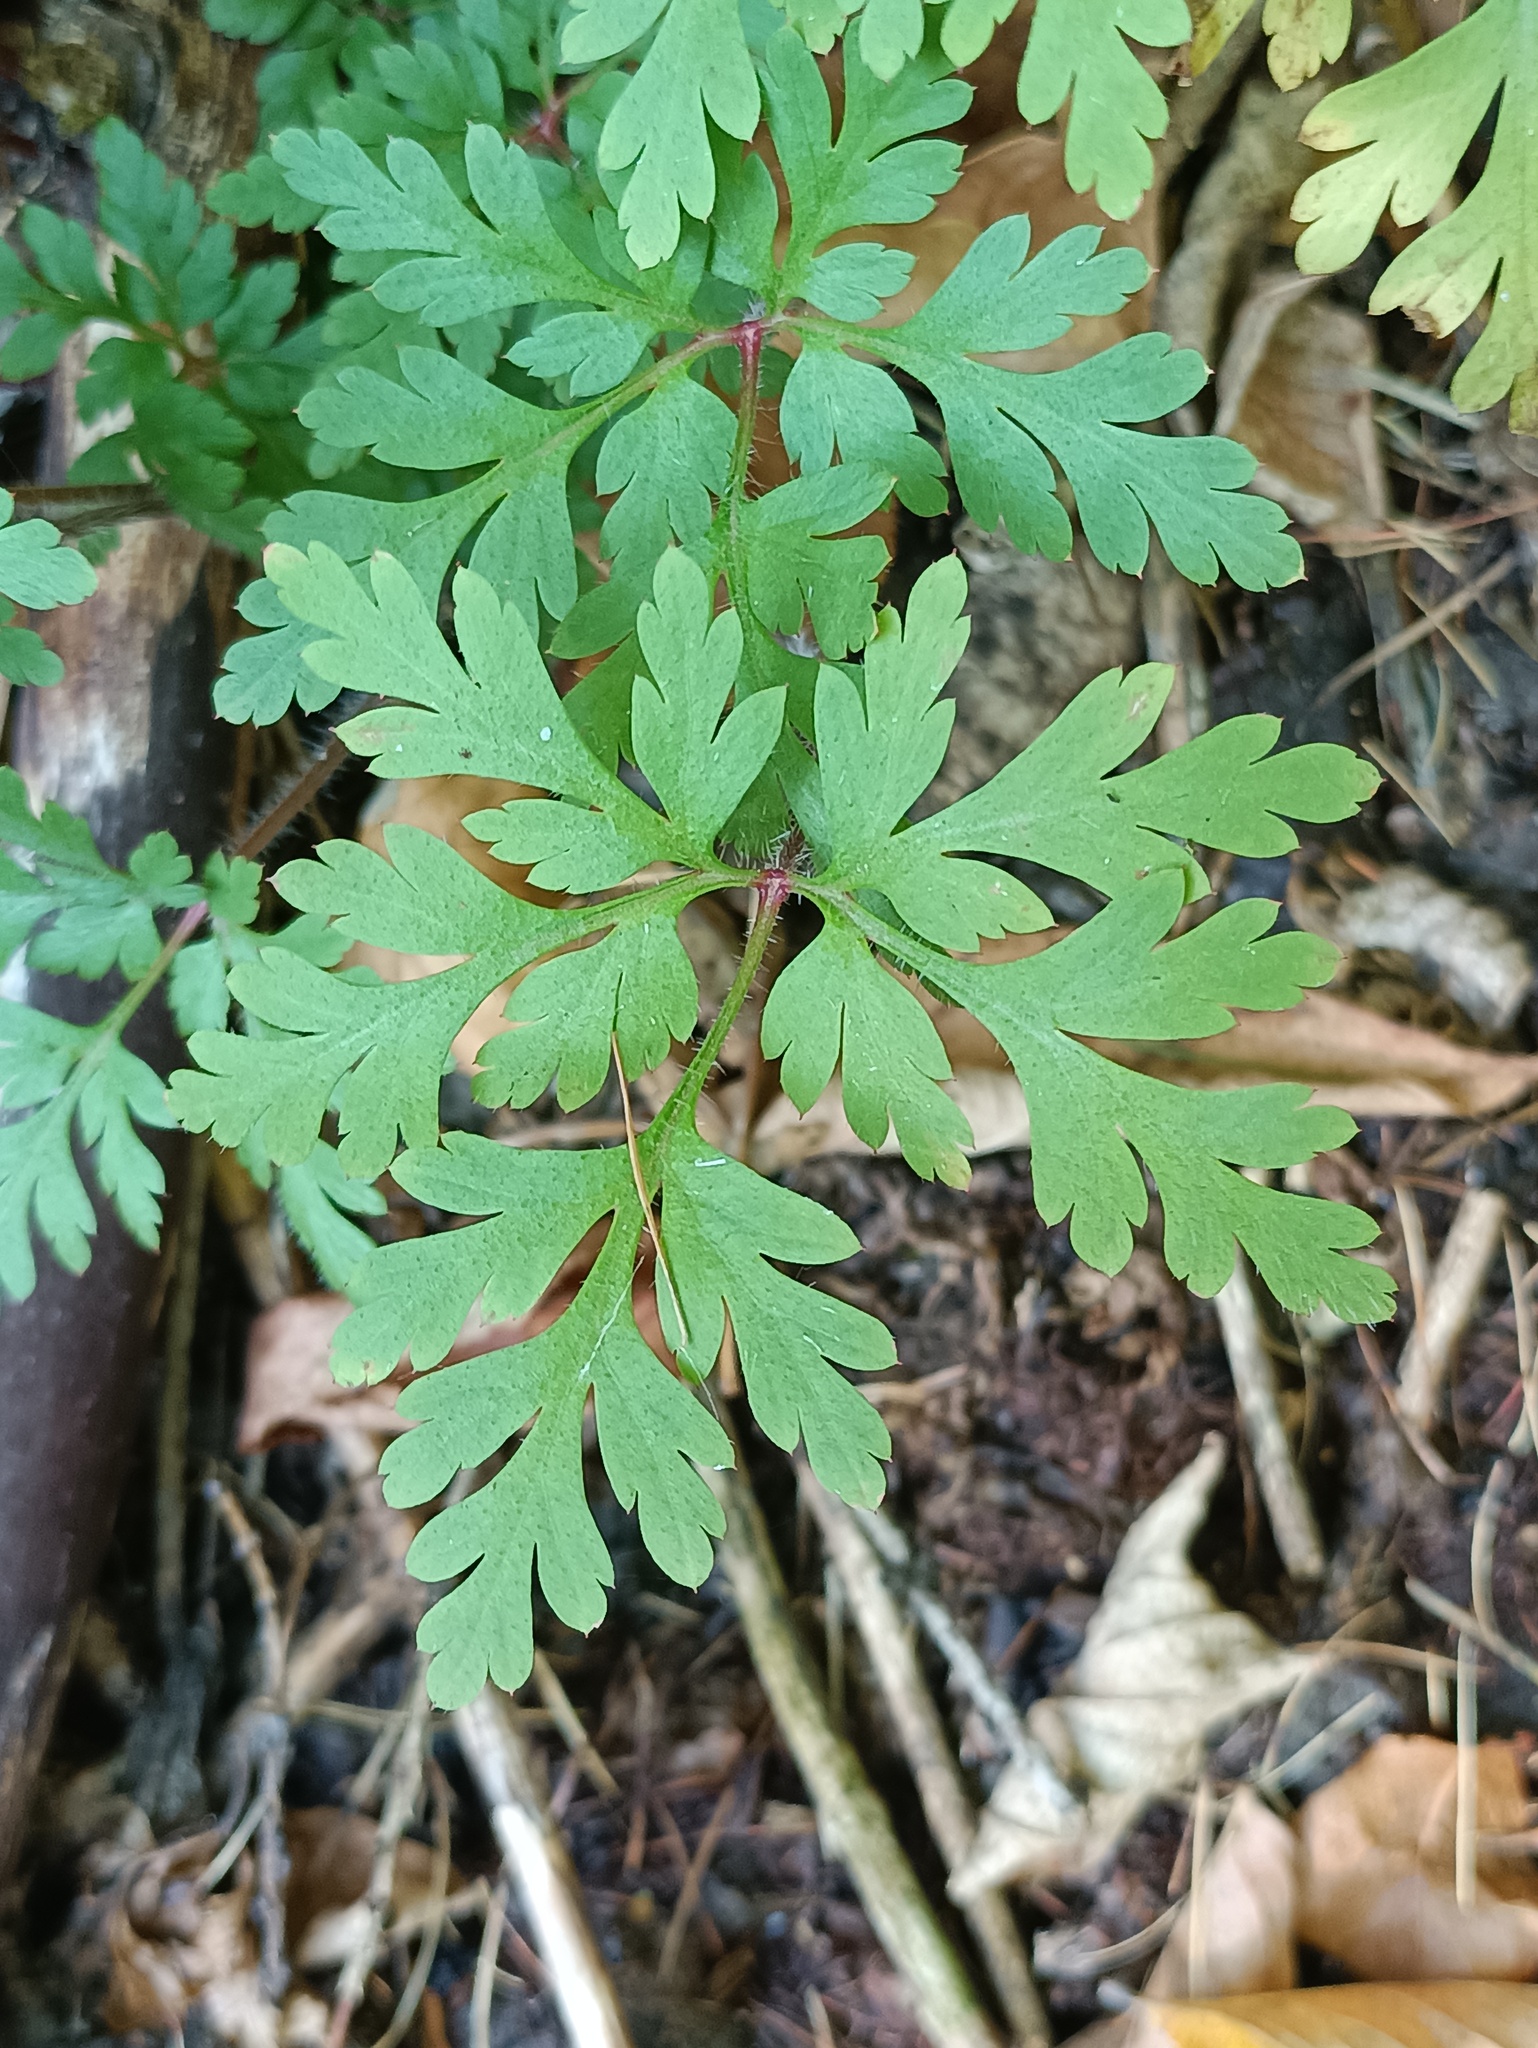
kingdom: Plantae
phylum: Tracheophyta
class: Magnoliopsida
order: Geraniales
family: Geraniaceae
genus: Geranium
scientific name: Geranium robertianum
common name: Herb-robert
